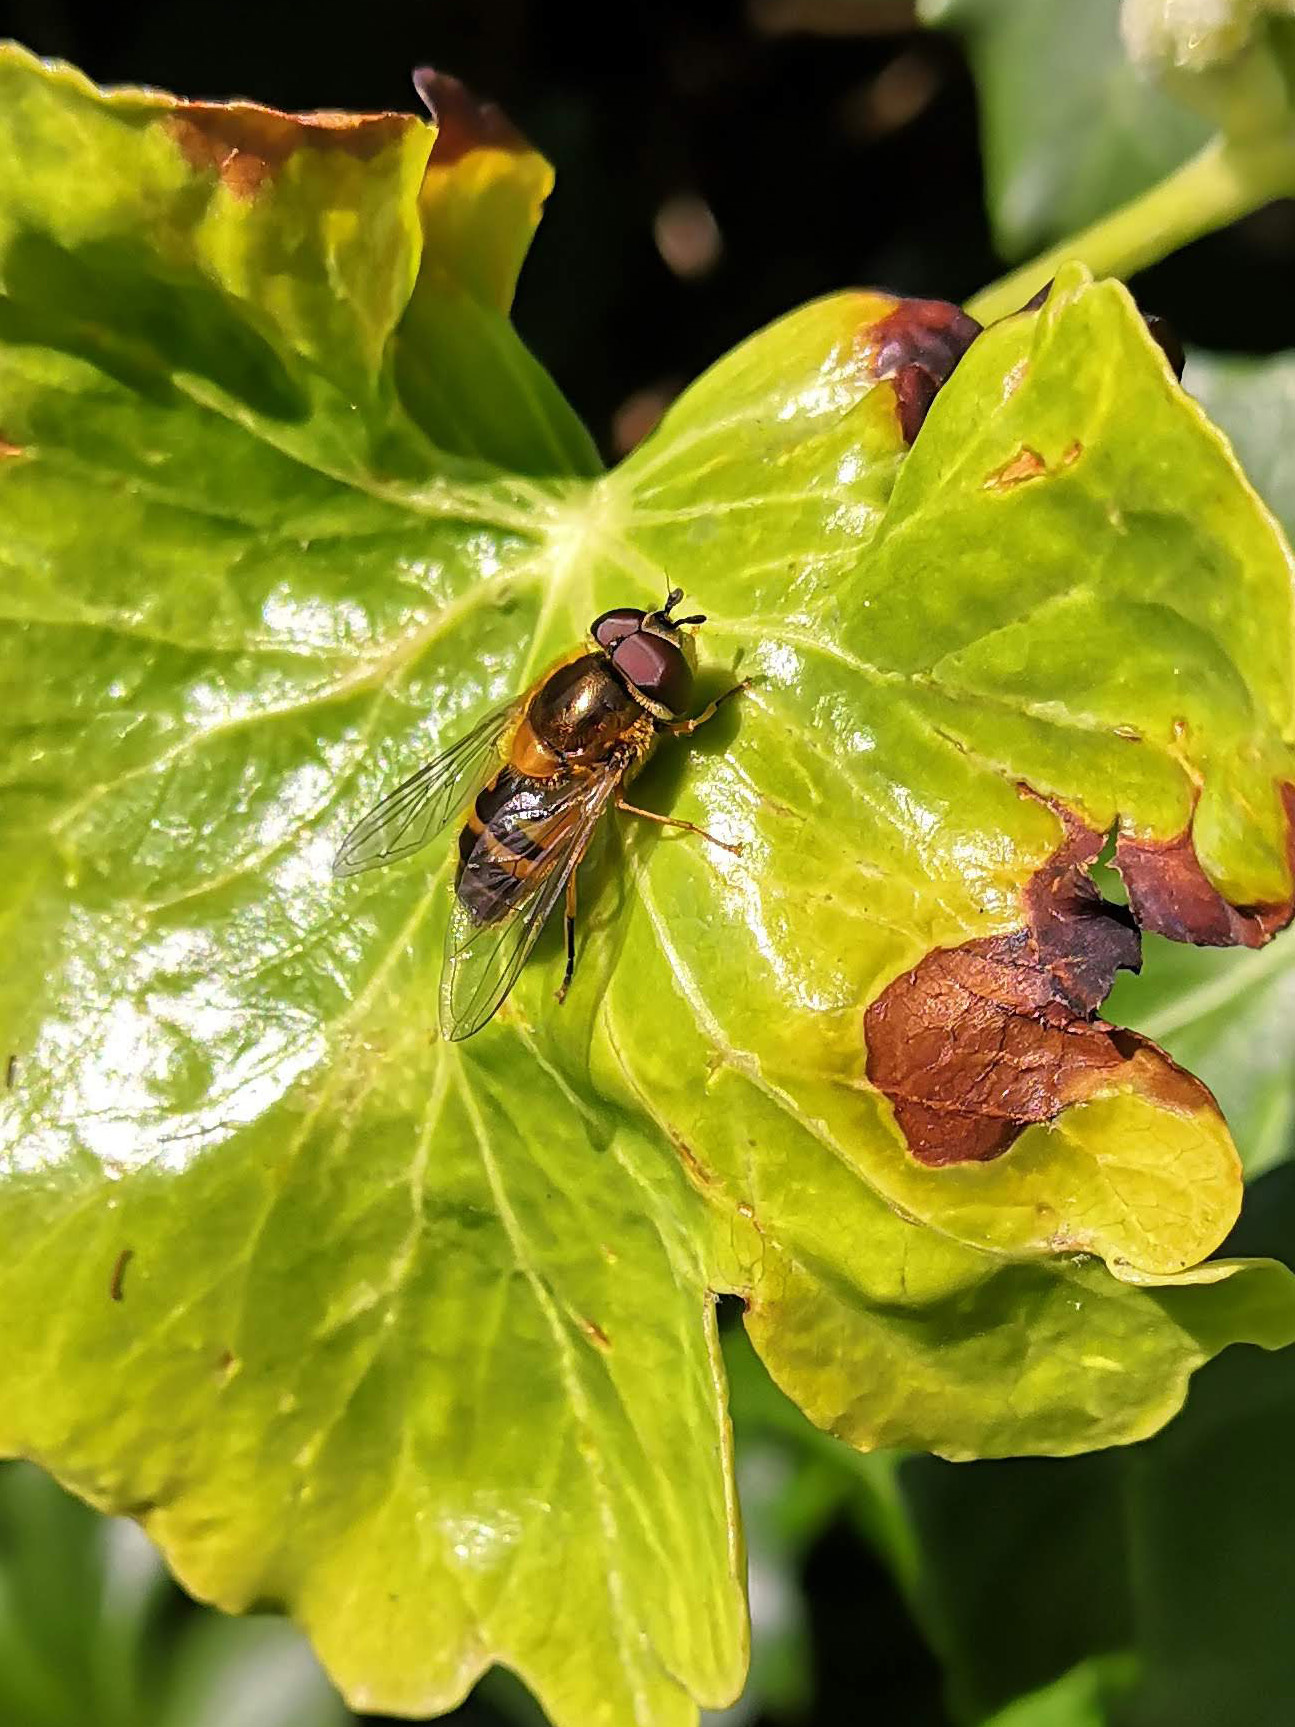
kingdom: Animalia
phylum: Arthropoda
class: Insecta
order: Diptera
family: Syrphidae
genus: Epistrophe
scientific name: Epistrophe eligans
